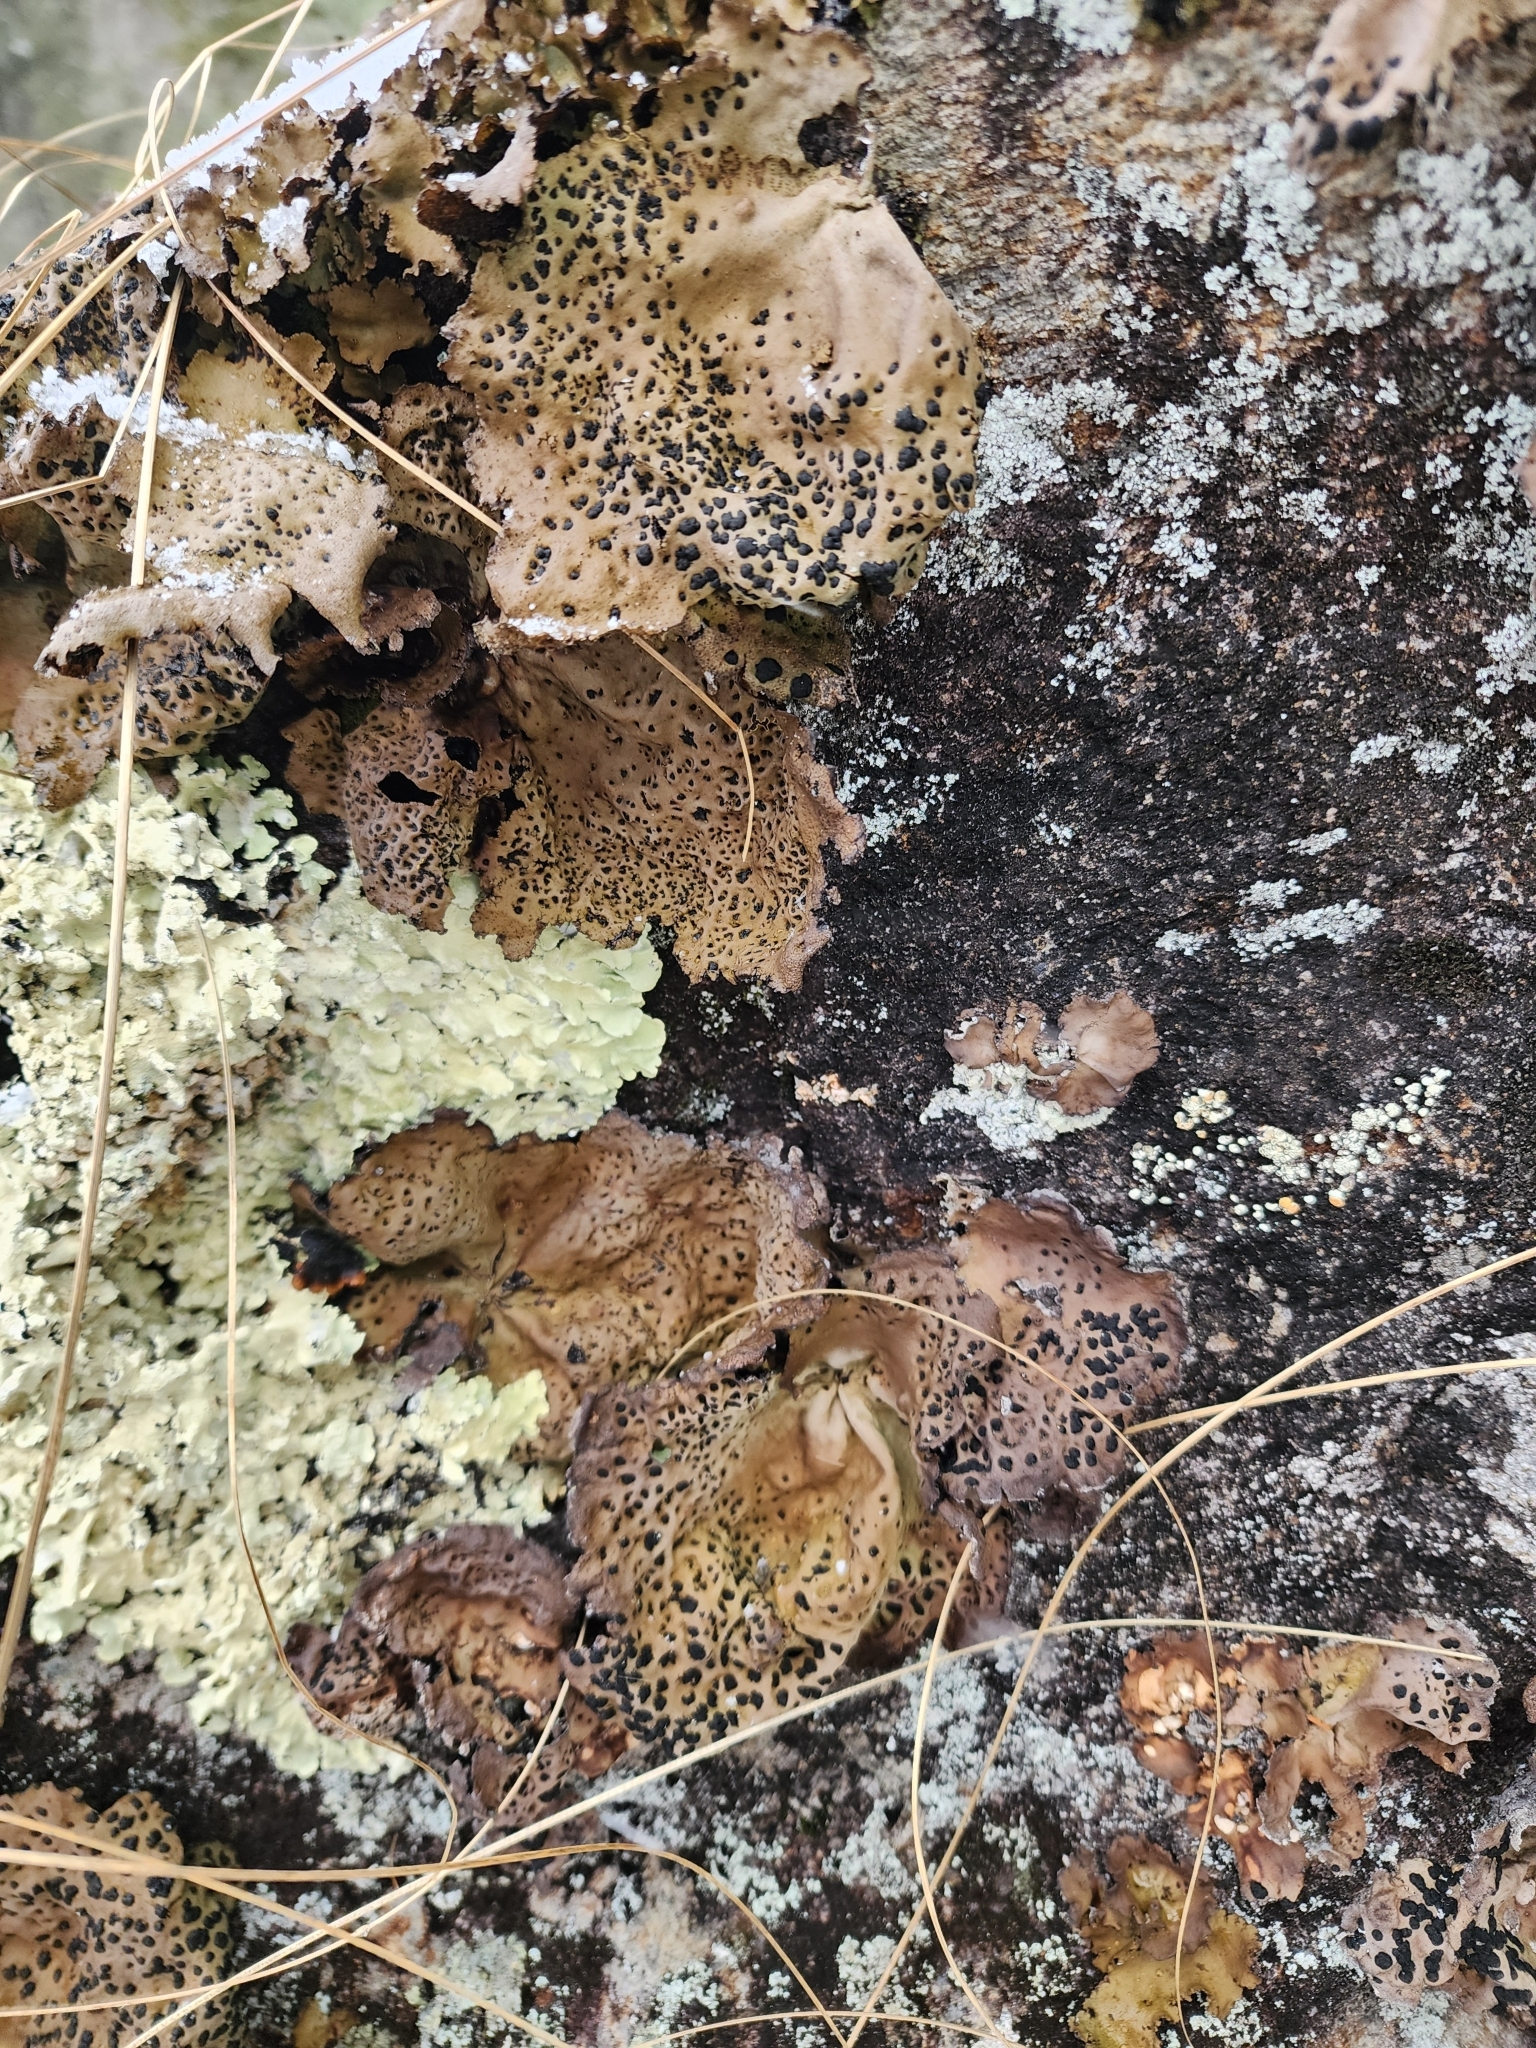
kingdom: Fungi
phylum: Ascomycota
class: Lecanoromycetes
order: Umbilicariales
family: Umbilicariaceae
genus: Umbilicaria
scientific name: Umbilicaria muhlenbergii
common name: Lesser rocktripe
